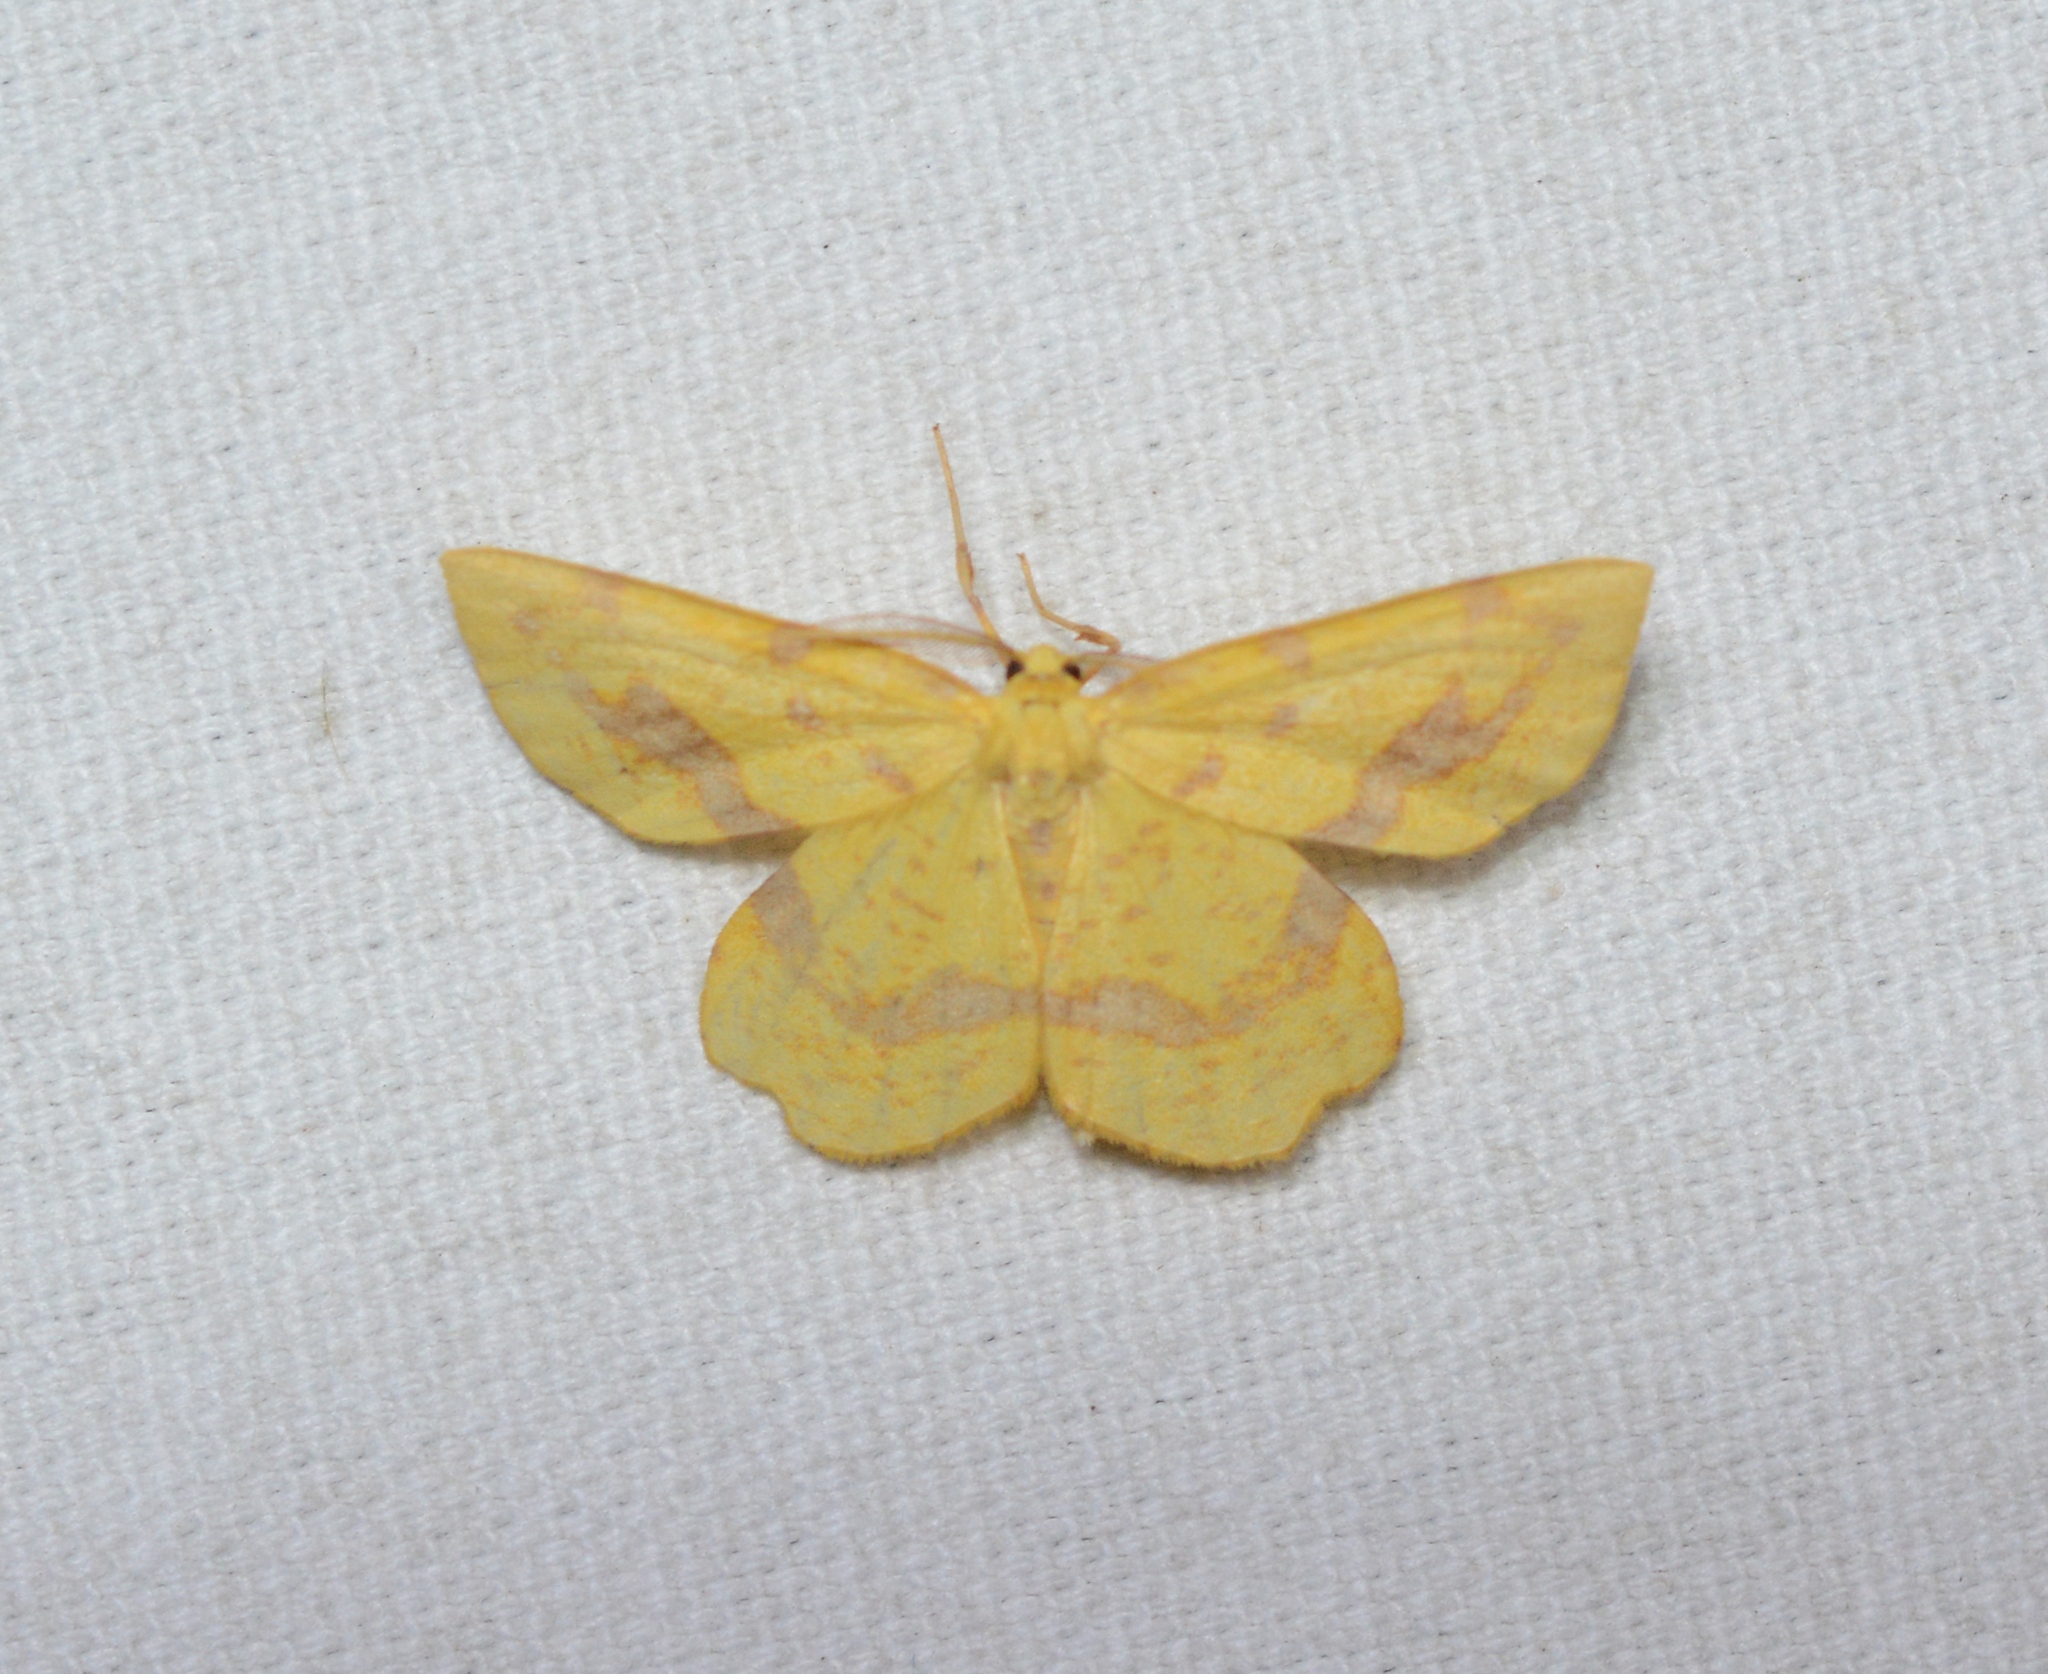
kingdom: Animalia
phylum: Arthropoda
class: Insecta
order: Lepidoptera
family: Geometridae
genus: Xanthotype
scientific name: Xanthotype
